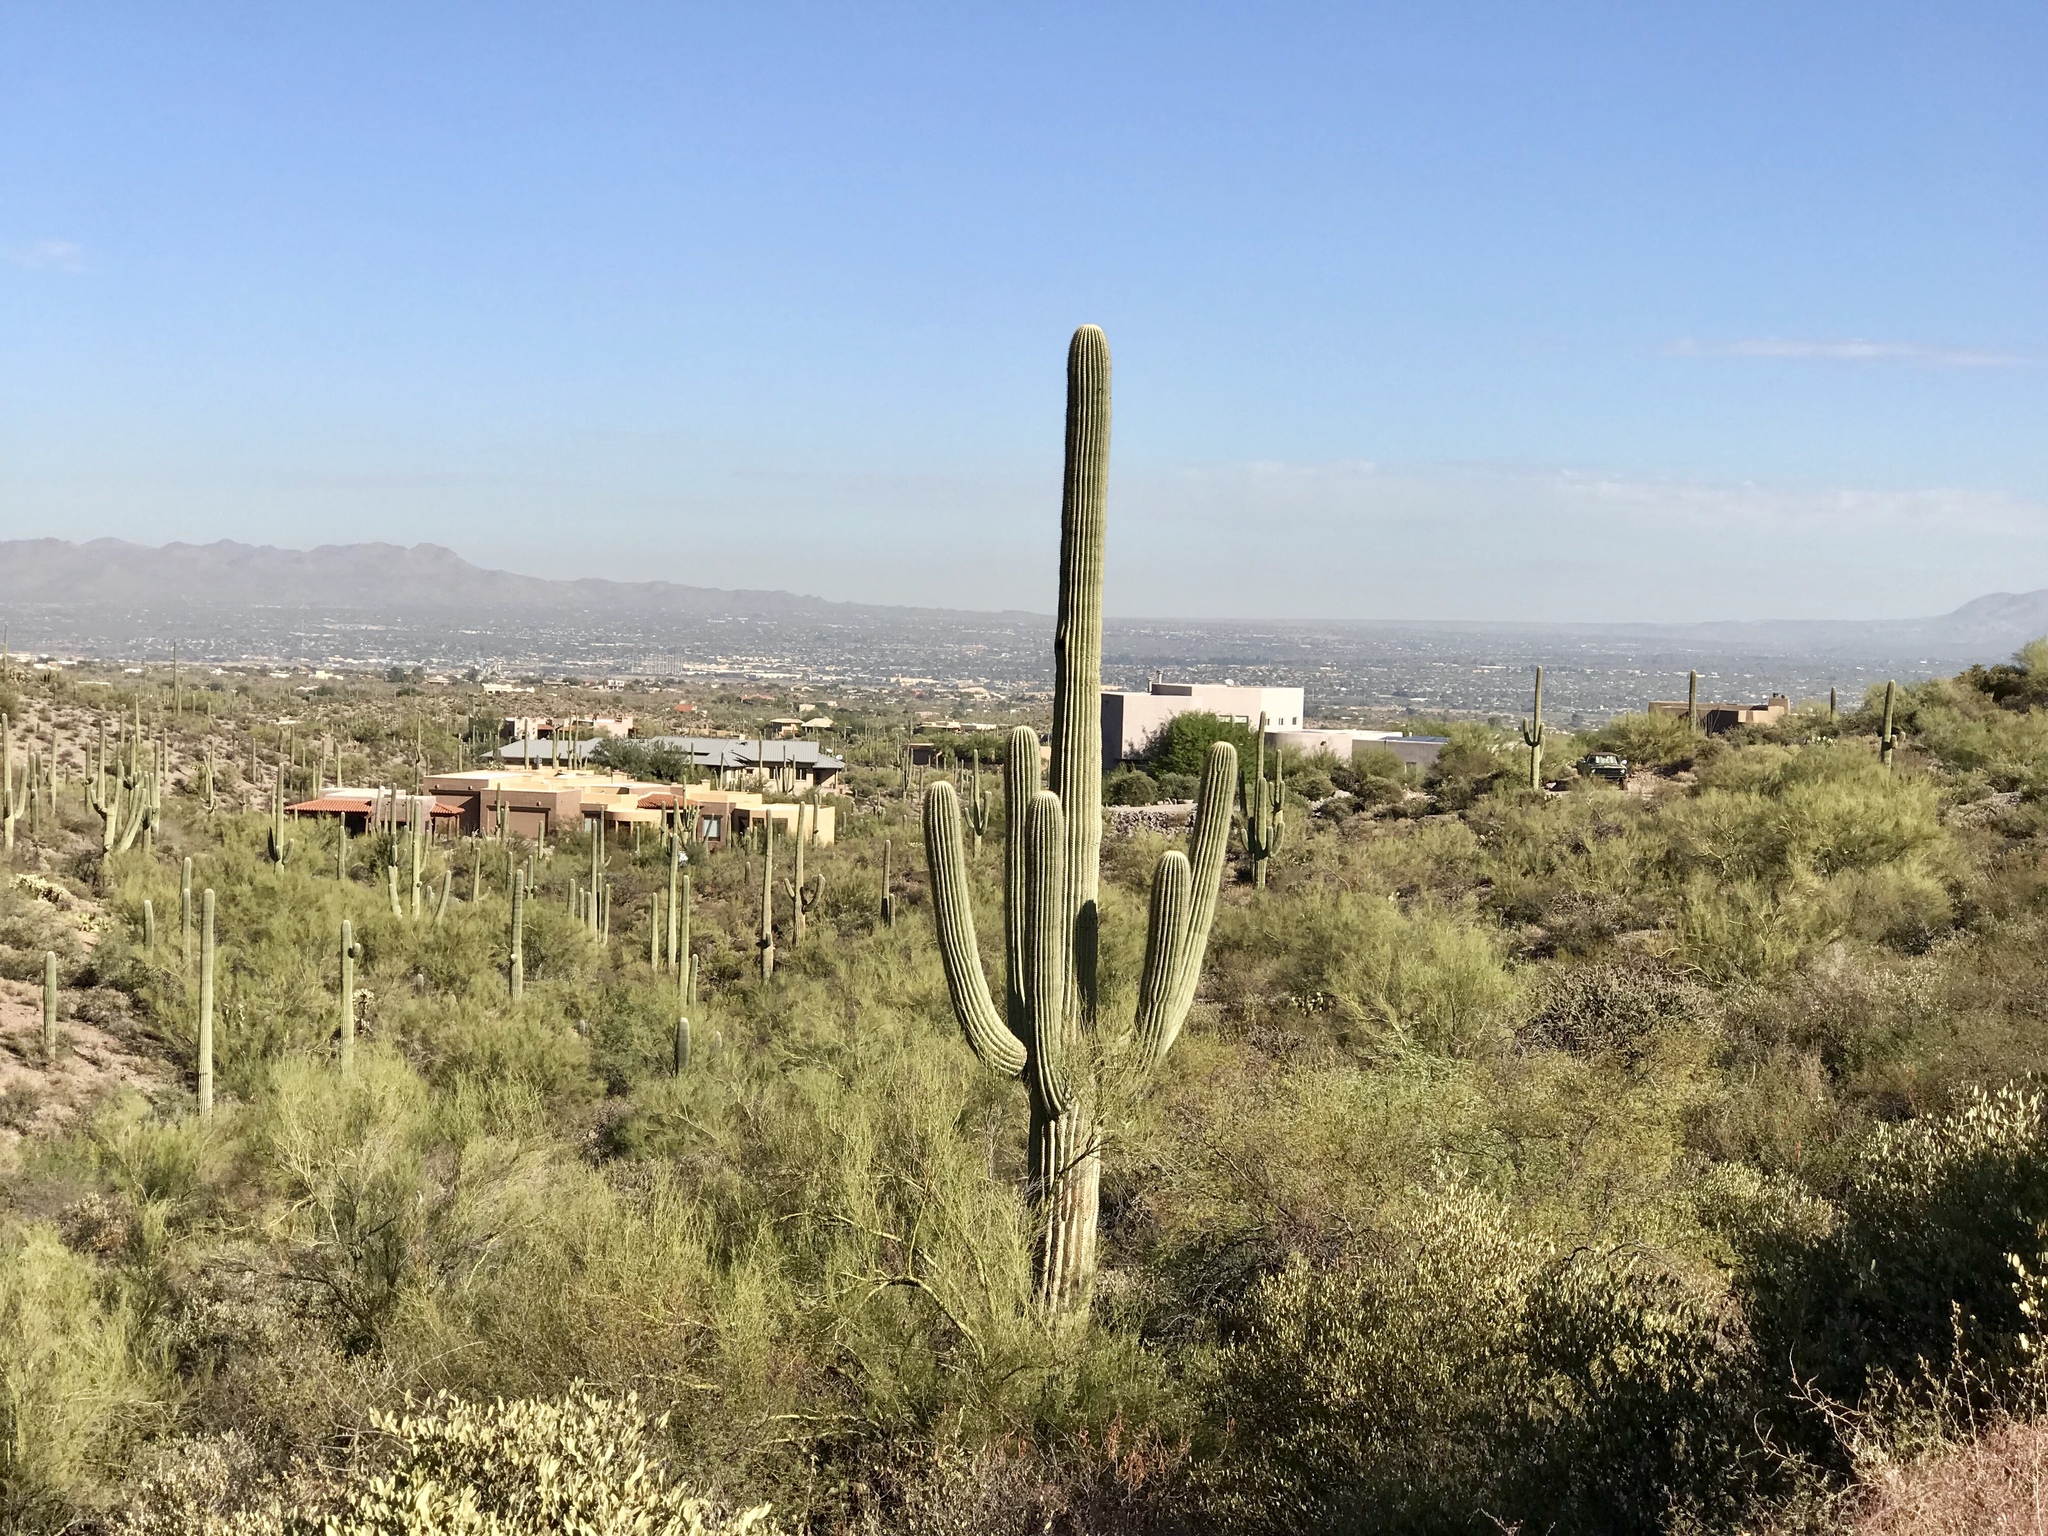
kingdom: Plantae
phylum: Tracheophyta
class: Magnoliopsida
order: Caryophyllales
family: Cactaceae
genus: Carnegiea
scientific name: Carnegiea gigantea
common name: Saguaro
